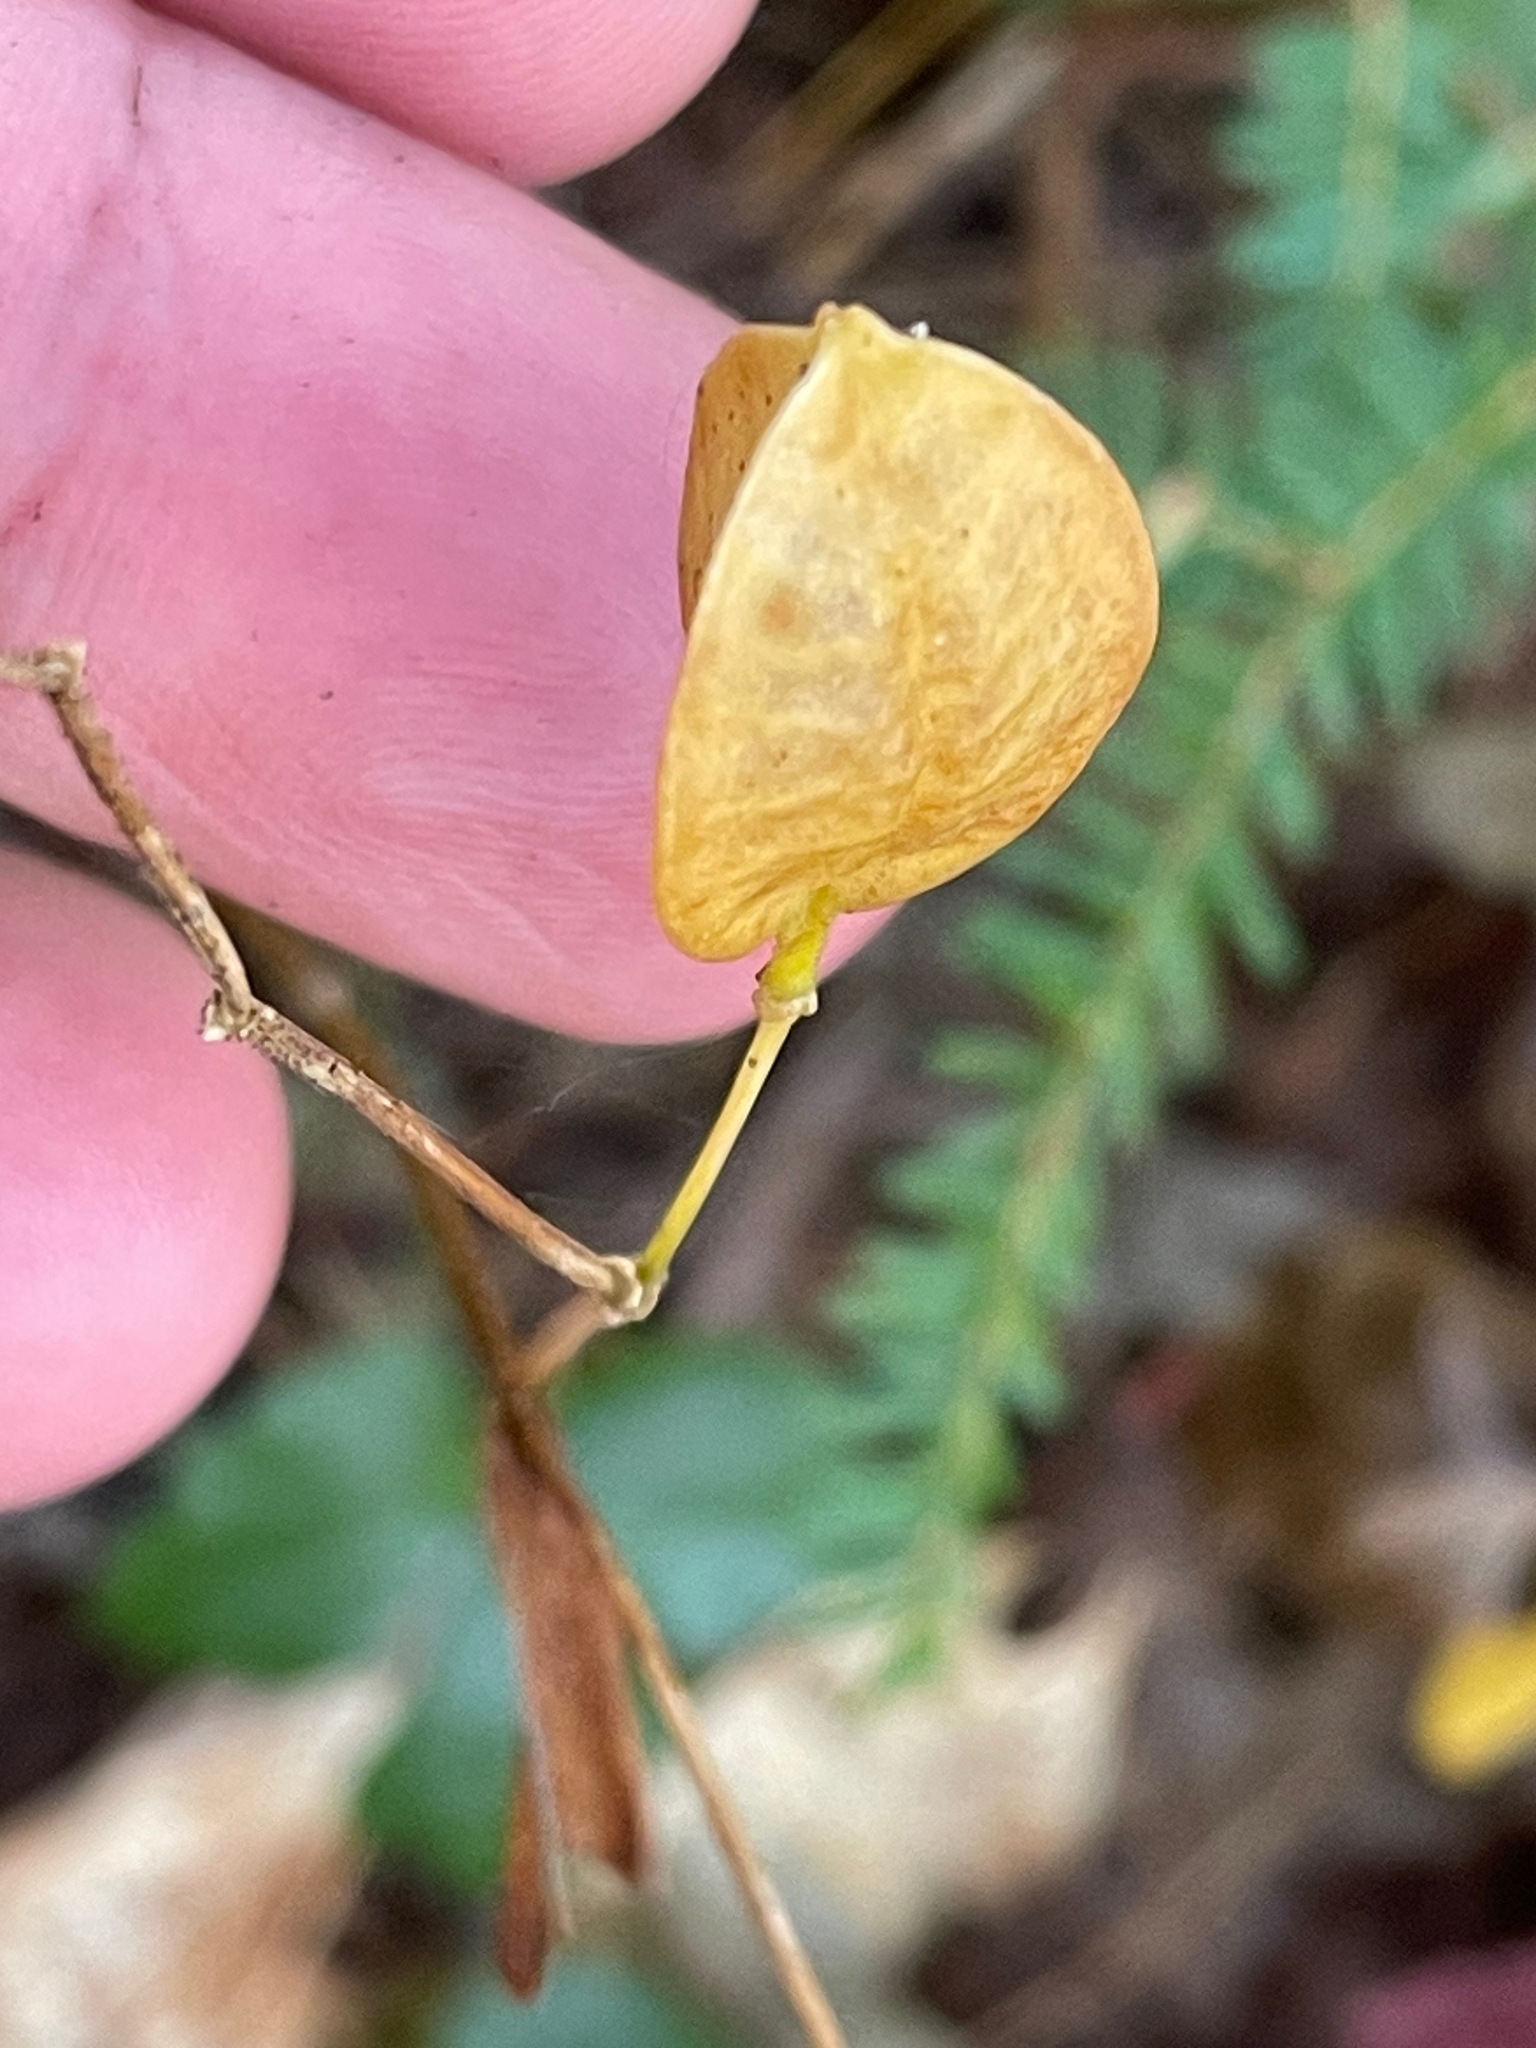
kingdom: Plantae
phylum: Tracheophyta
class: Liliopsida
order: Liliales
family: Colchicaceae
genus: Uvularia
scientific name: Uvularia sessilifolia
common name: Straw-lily
